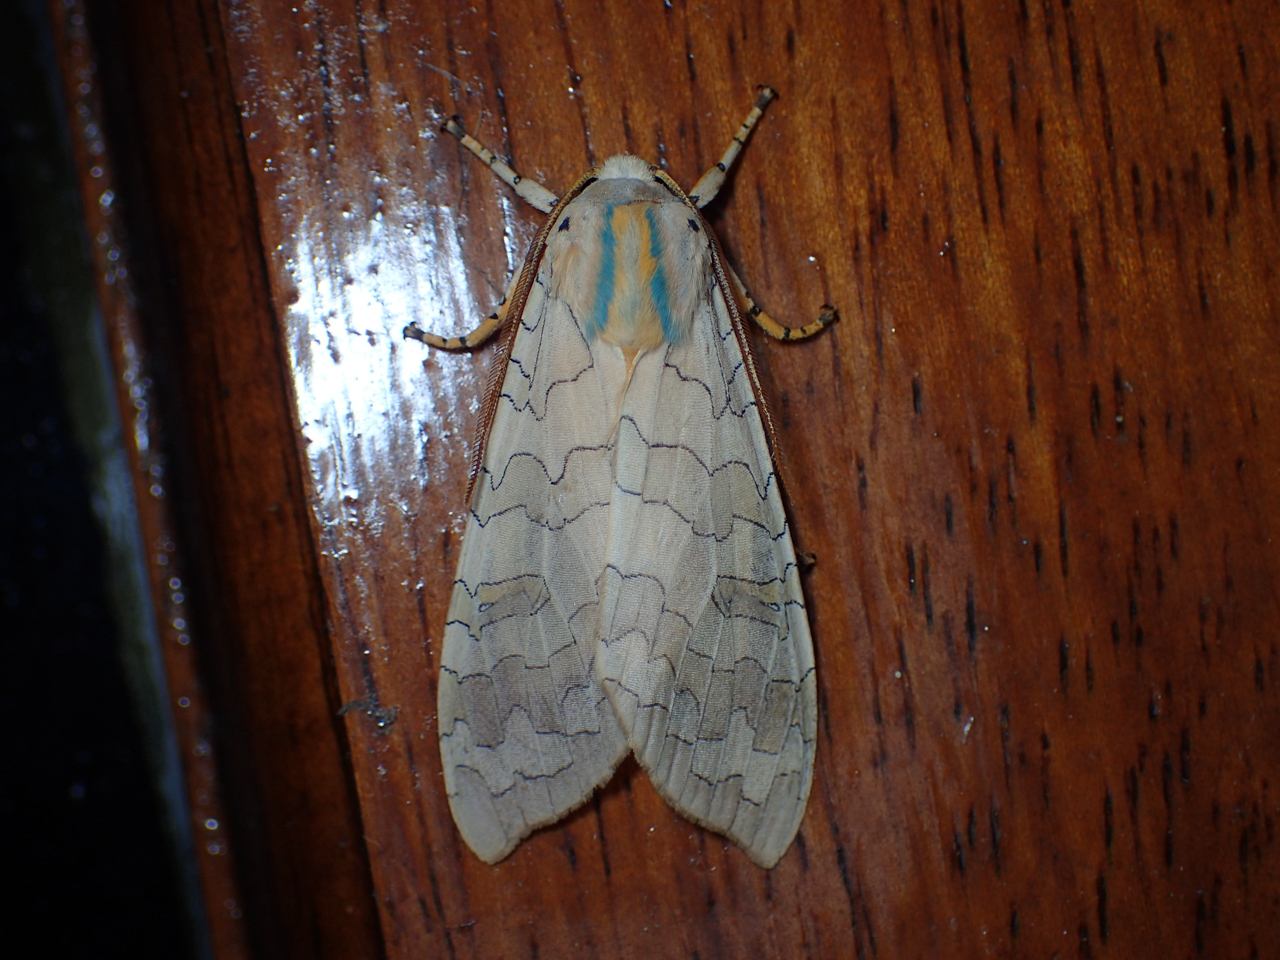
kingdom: Animalia
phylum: Arthropoda
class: Insecta
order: Lepidoptera
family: Erebidae
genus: Halysidota
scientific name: Halysidota
